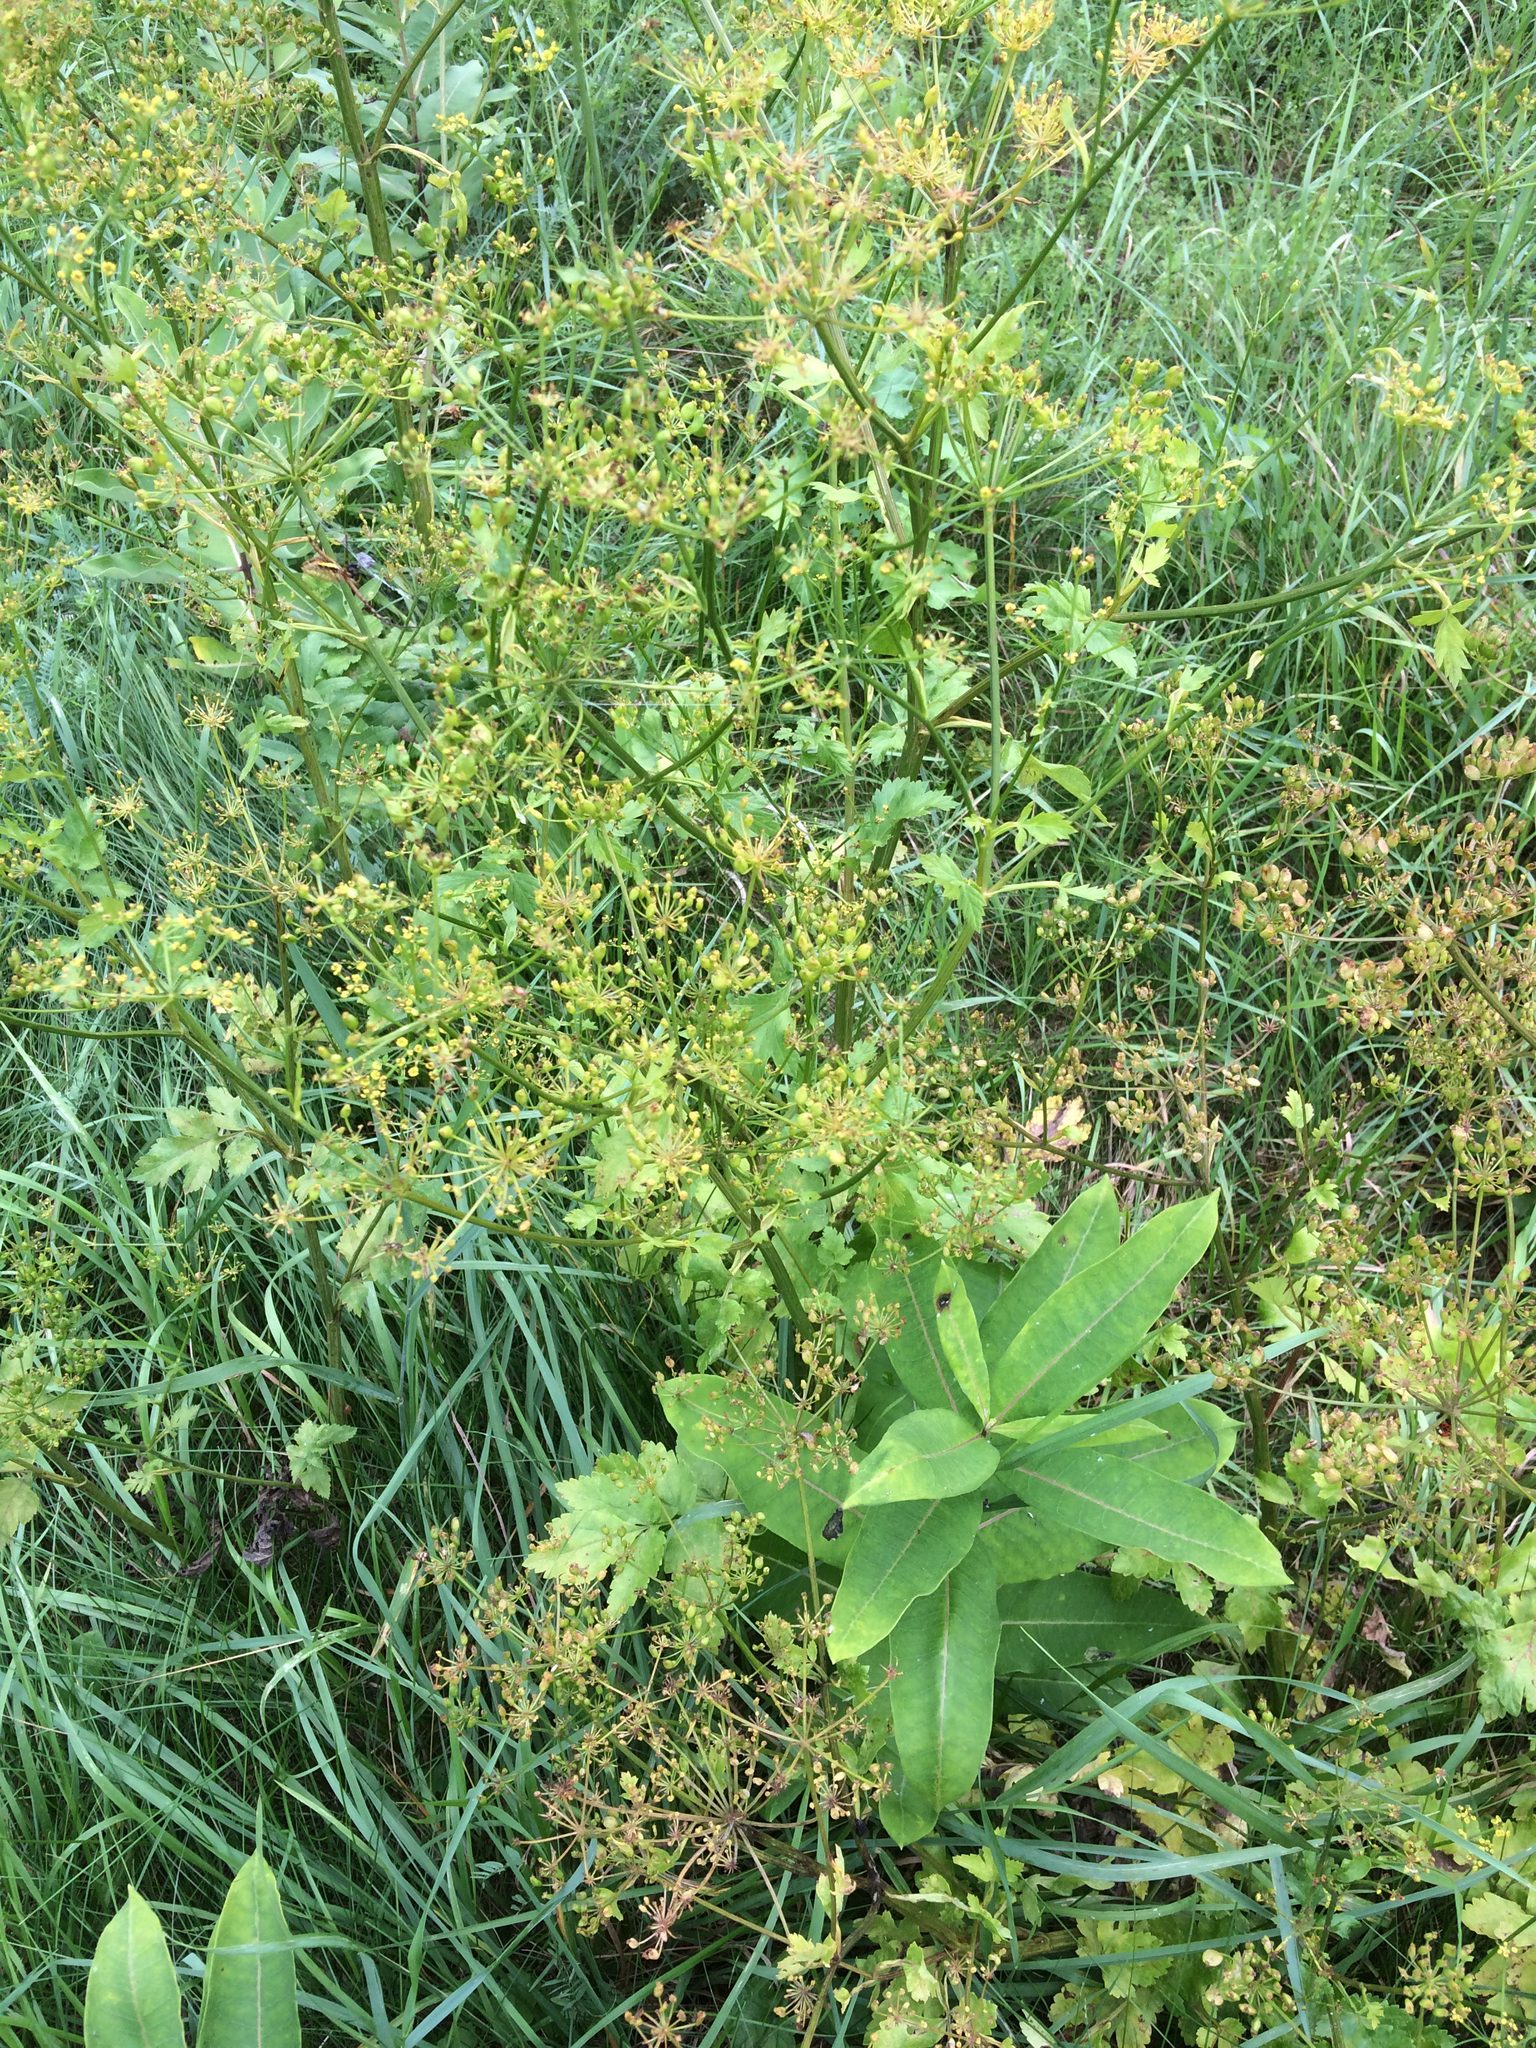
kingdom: Plantae
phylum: Tracheophyta
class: Magnoliopsida
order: Apiales
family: Apiaceae
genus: Pastinaca
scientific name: Pastinaca sativa
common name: Wild parsnip
